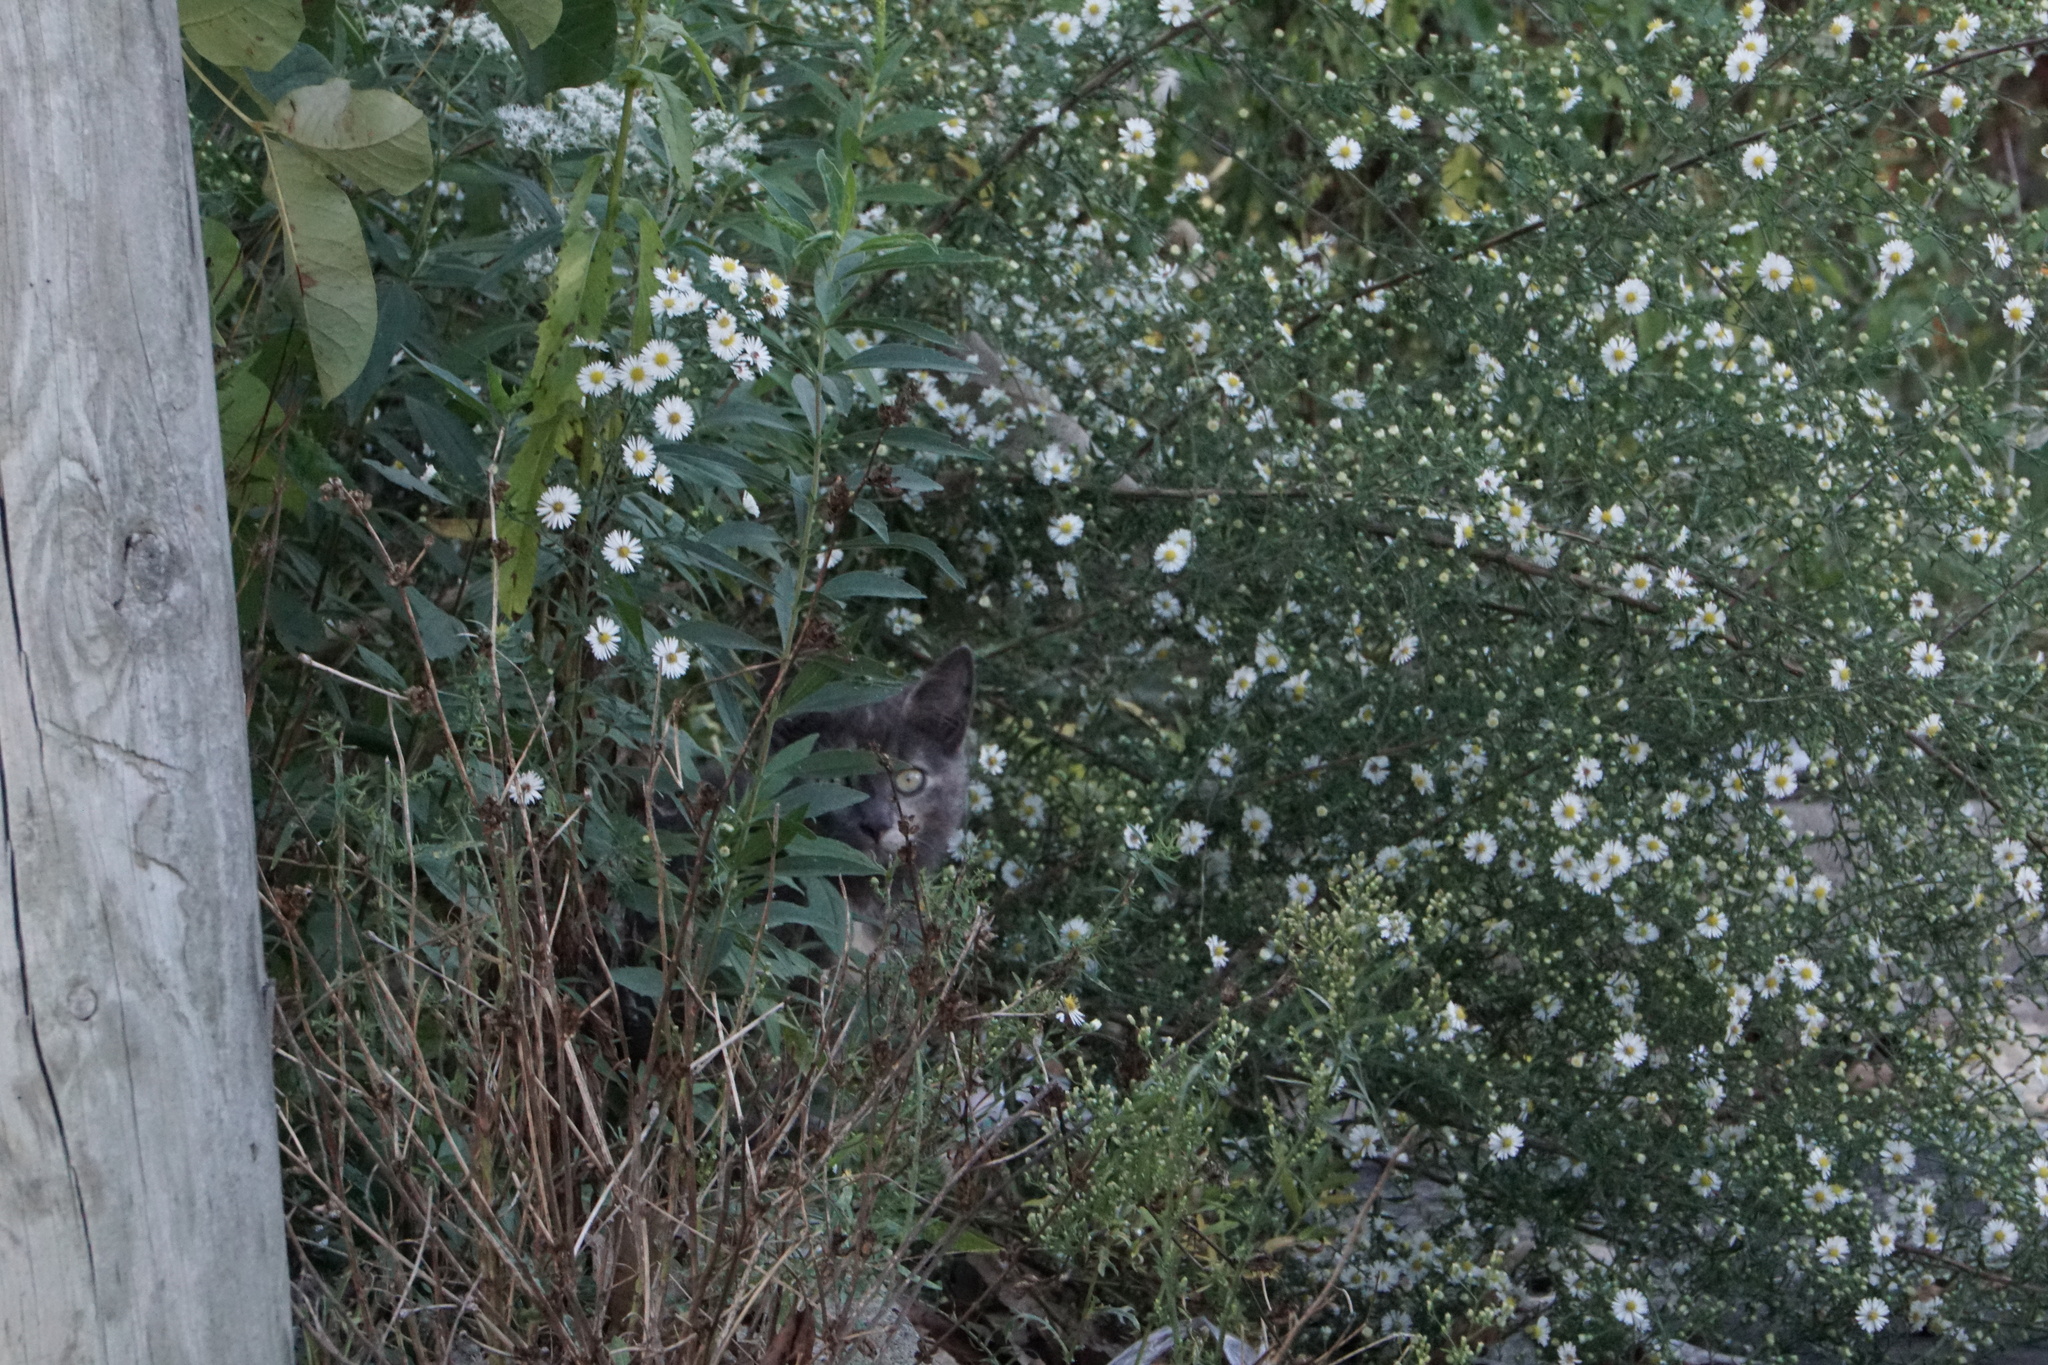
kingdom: Animalia
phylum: Chordata
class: Mammalia
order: Carnivora
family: Felidae
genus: Felis
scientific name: Felis catus
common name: Domestic cat
